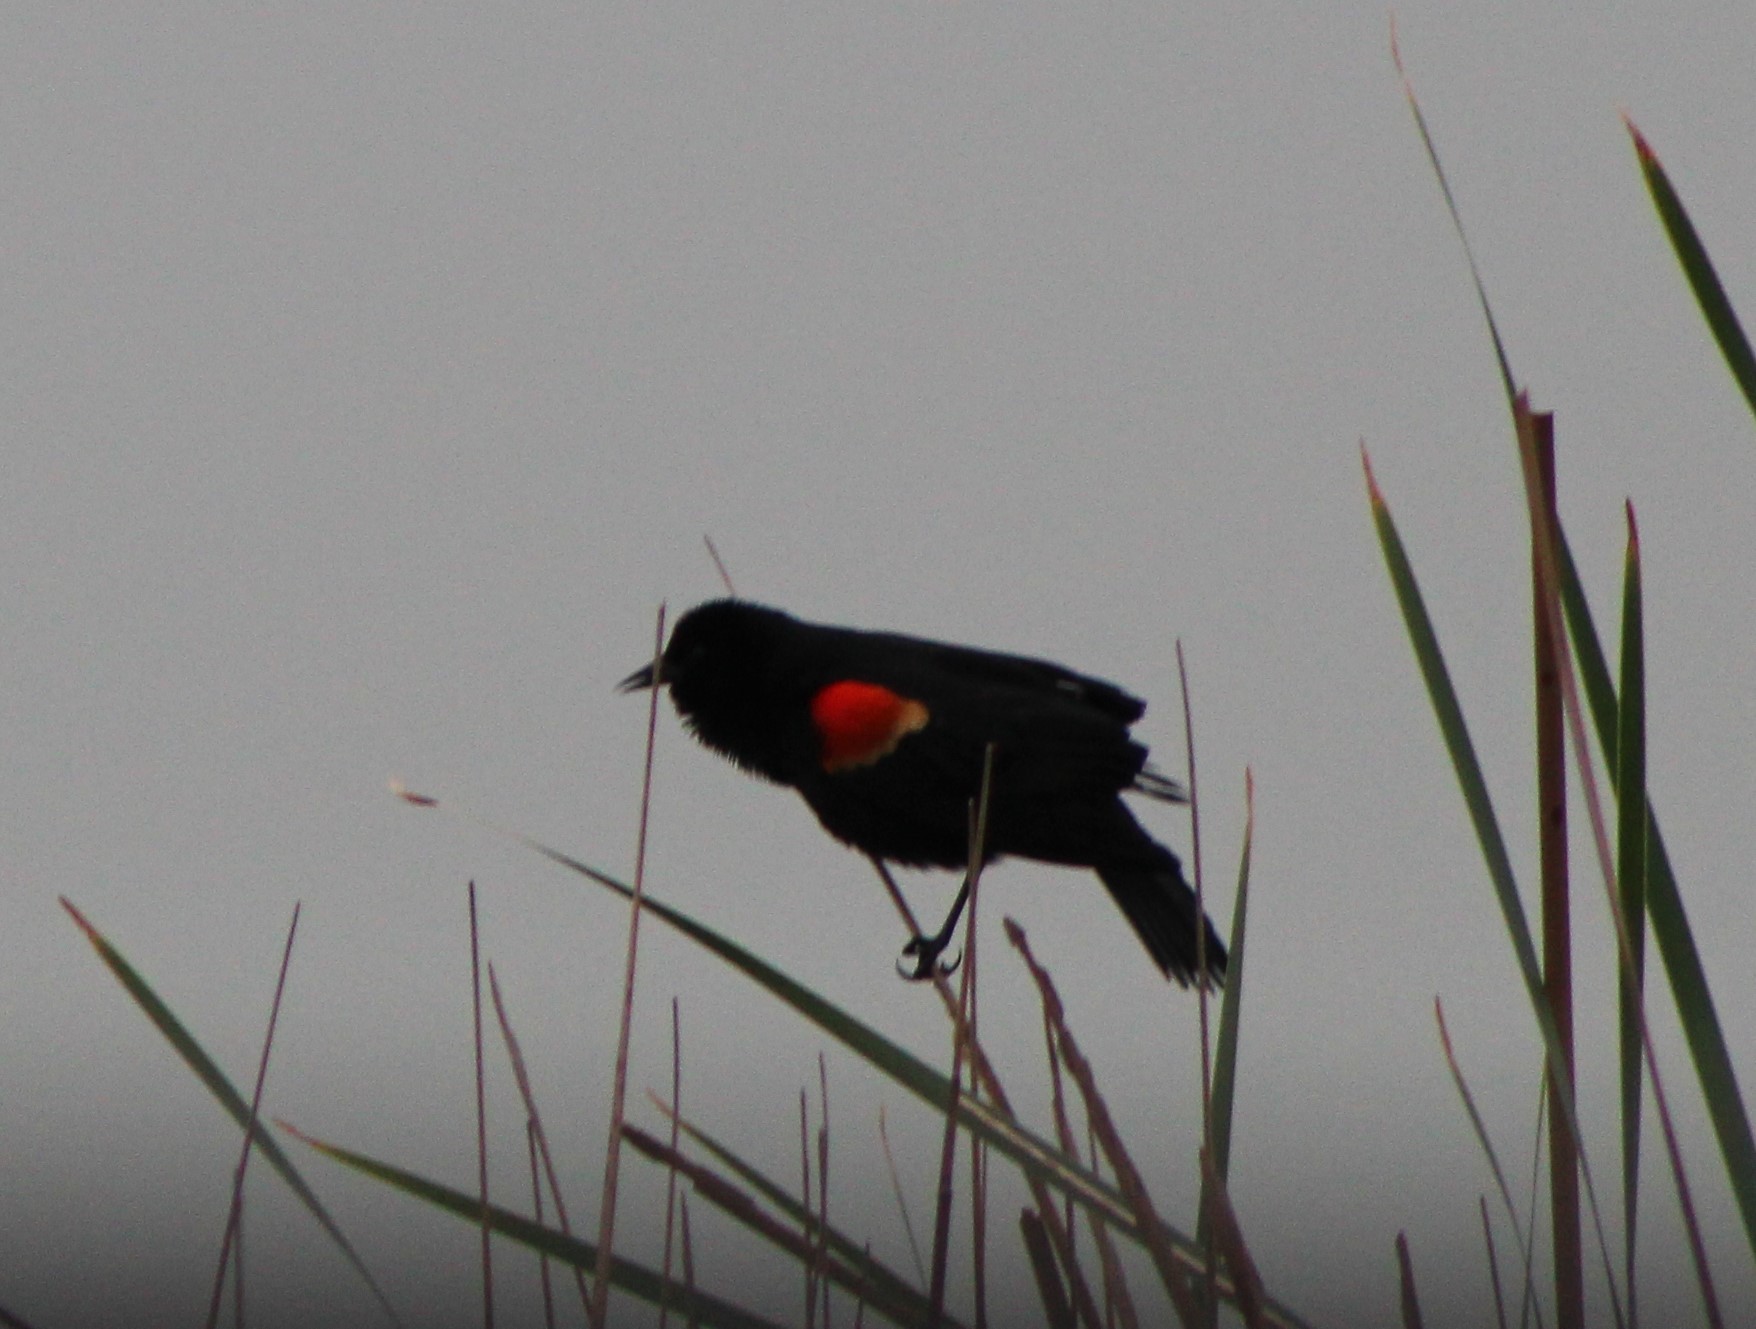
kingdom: Animalia
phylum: Chordata
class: Aves
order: Passeriformes
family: Icteridae
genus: Agelaius
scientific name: Agelaius phoeniceus
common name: Red-winged blackbird
